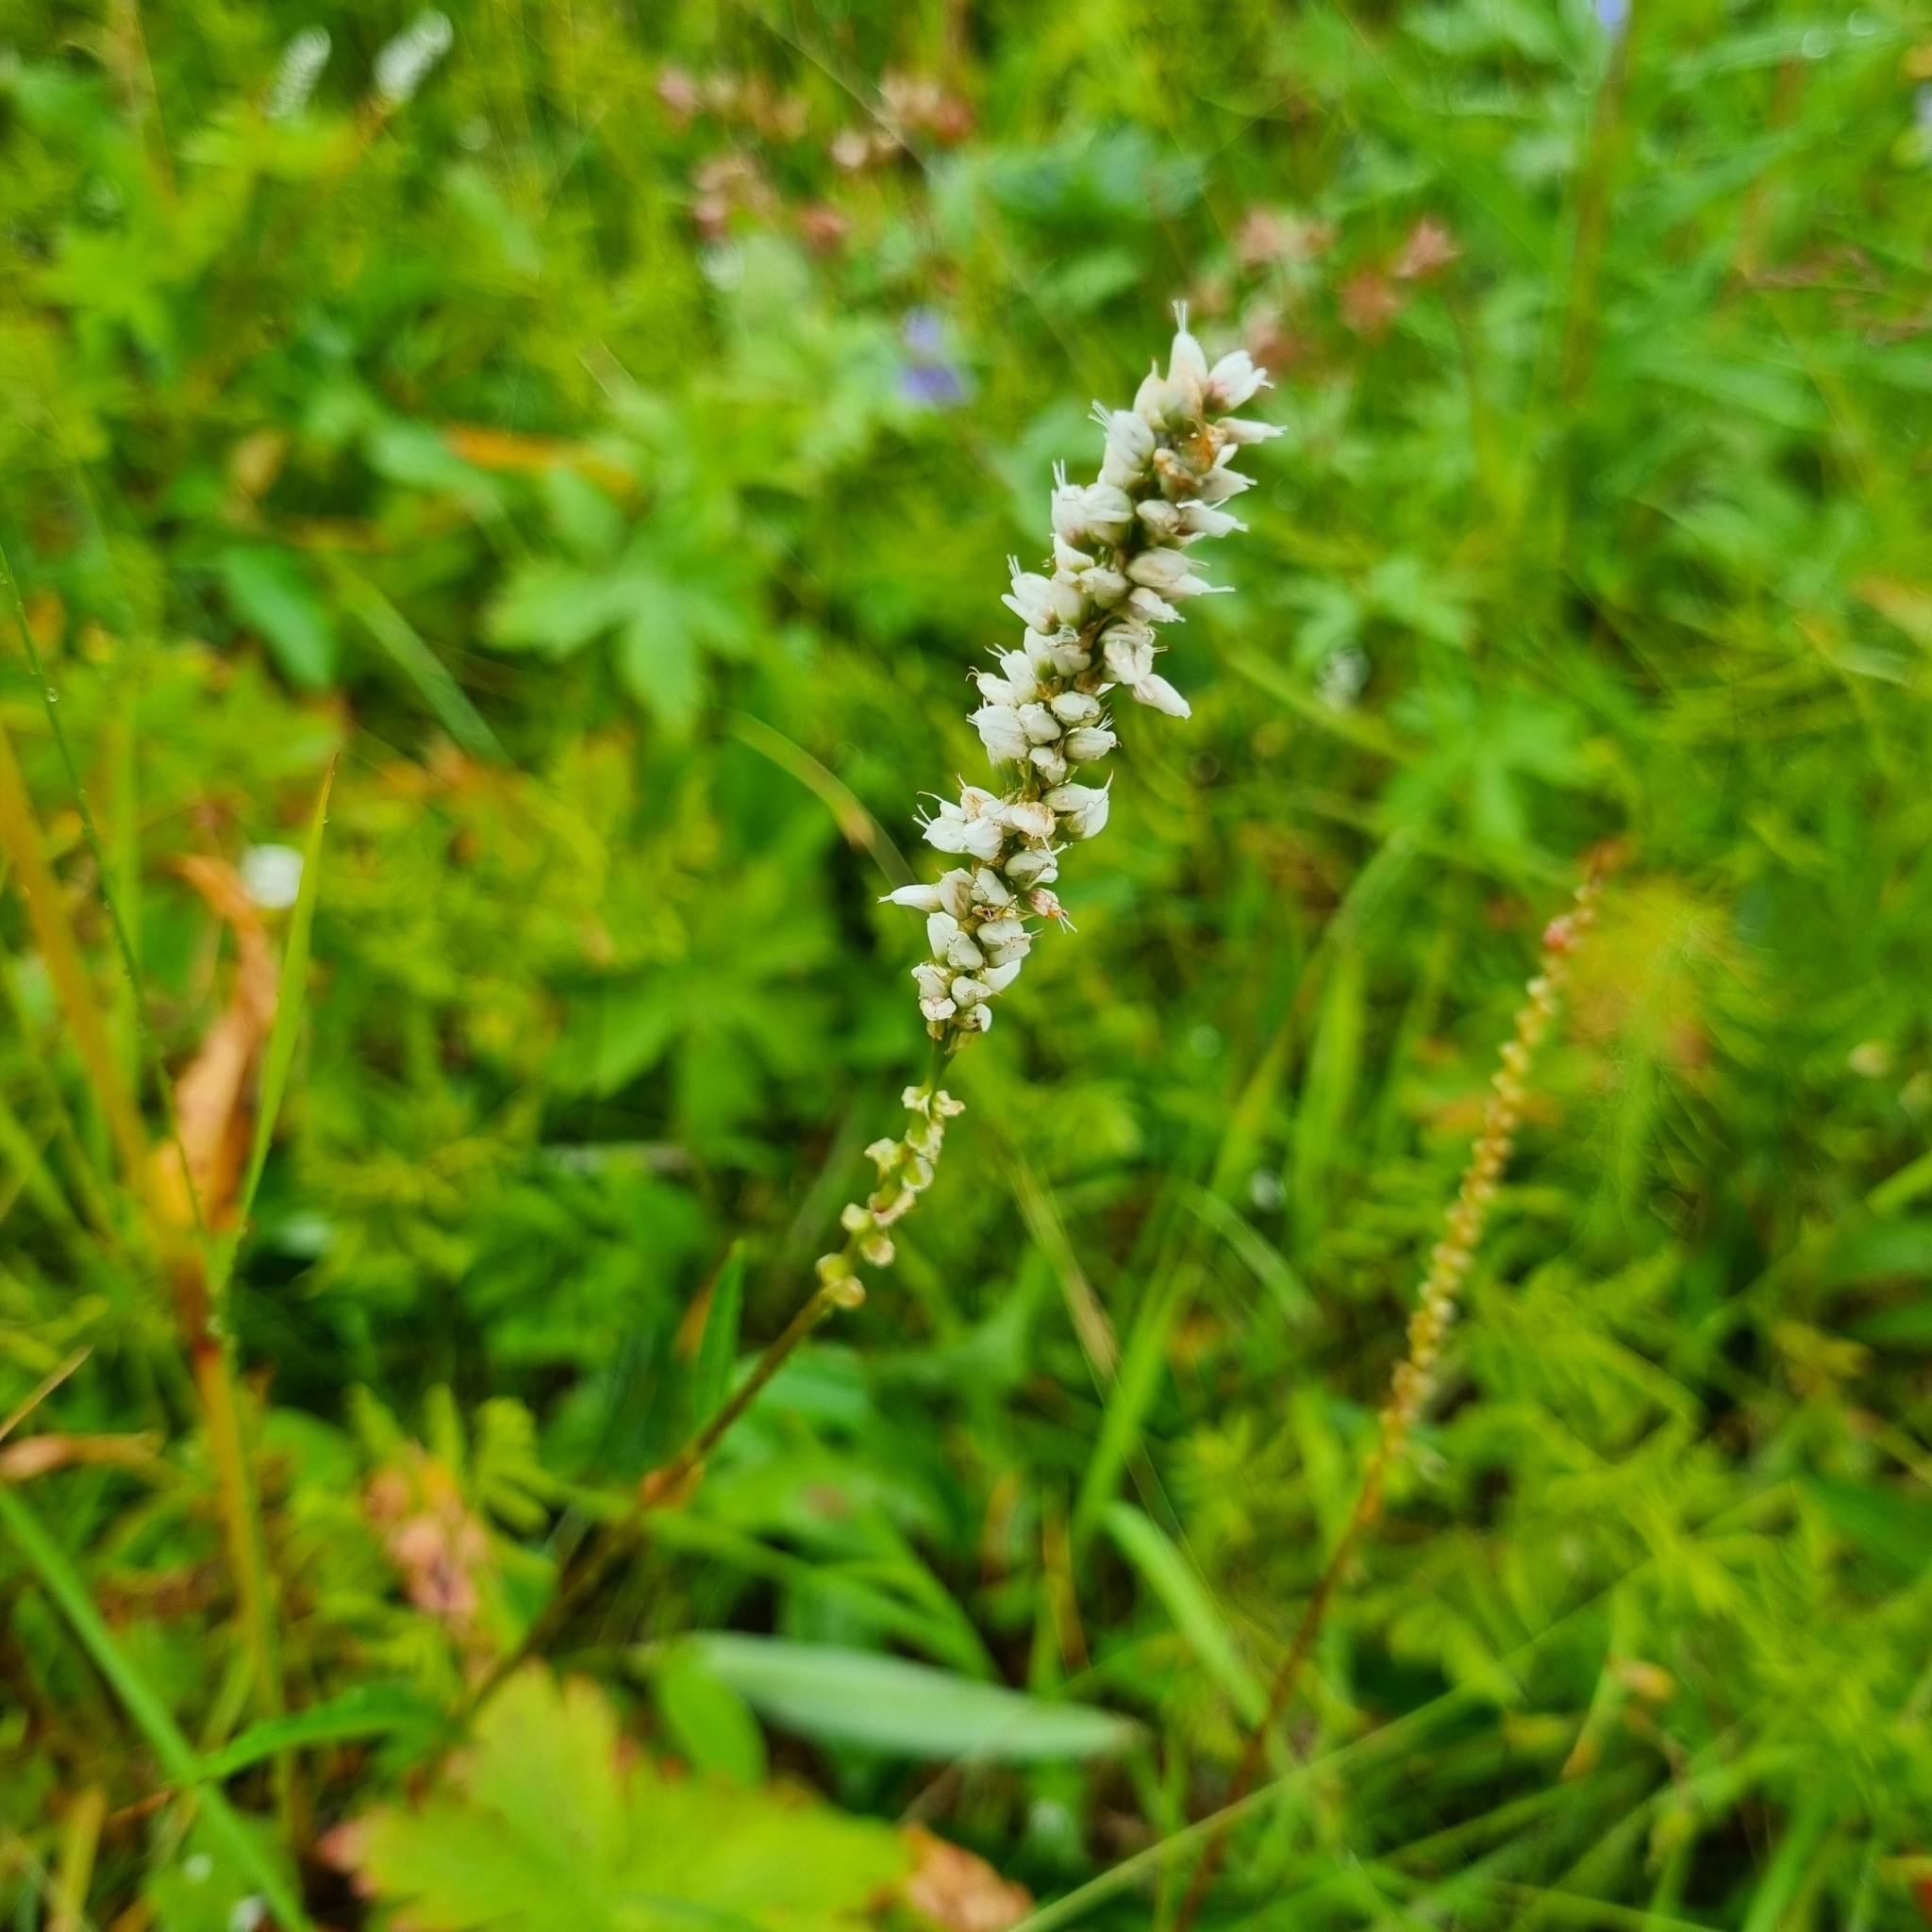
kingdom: Plantae
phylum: Tracheophyta
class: Magnoliopsida
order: Caryophyllales
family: Polygonaceae
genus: Bistorta
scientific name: Bistorta vivipara
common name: Alpine bistort
